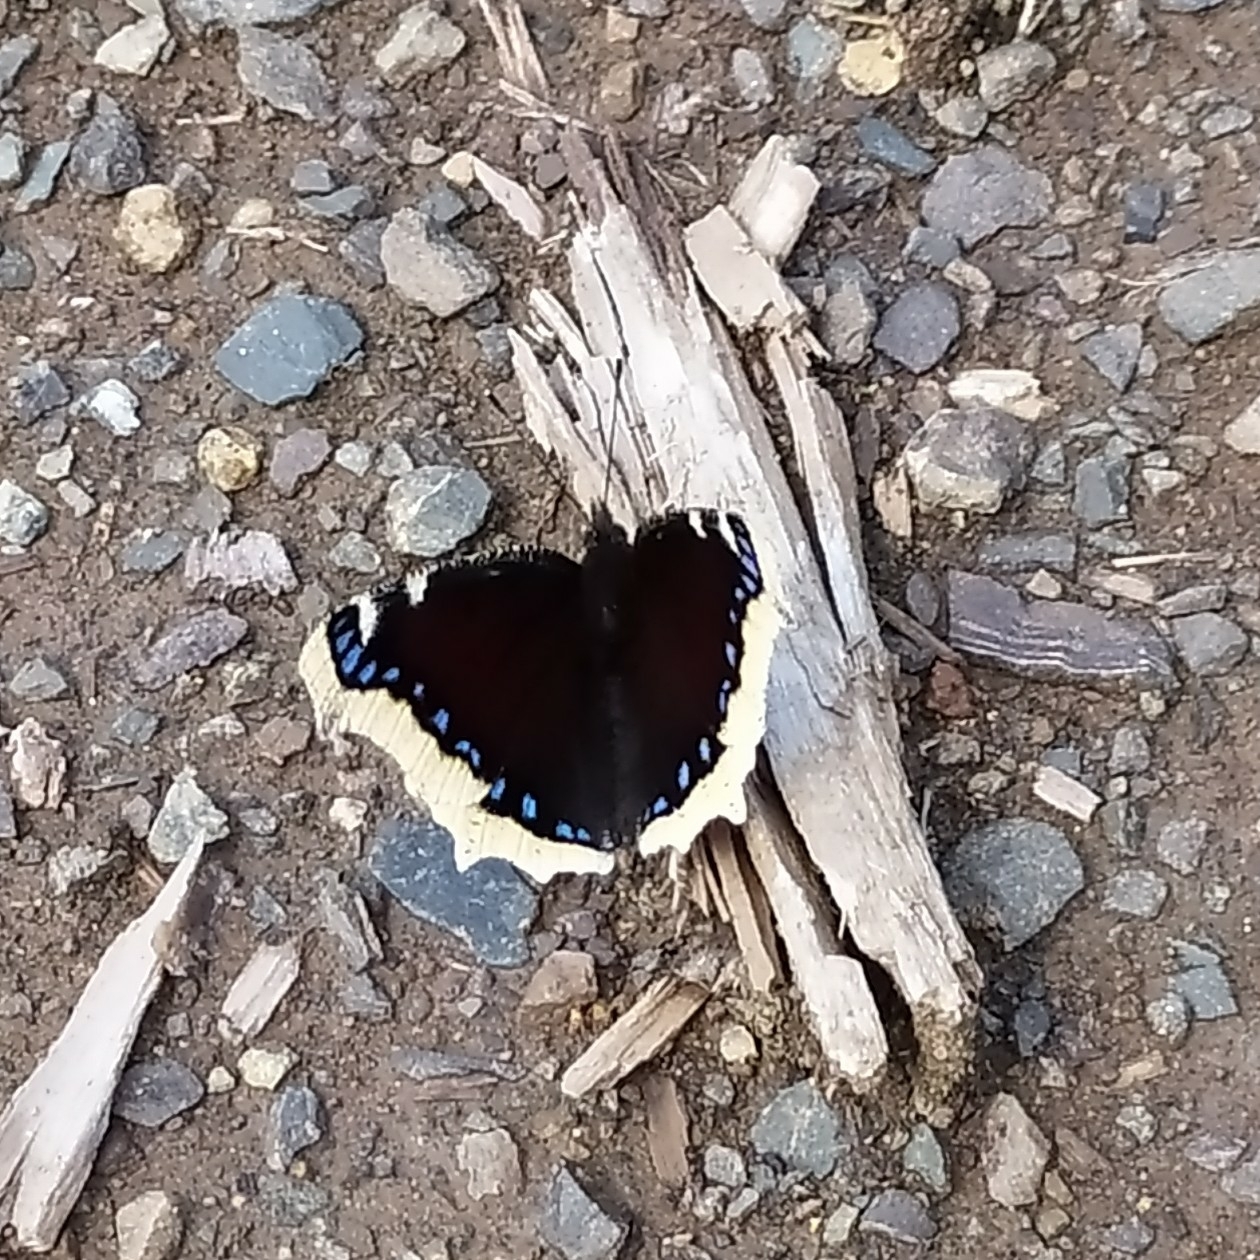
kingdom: Animalia
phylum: Arthropoda
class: Insecta
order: Lepidoptera
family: Nymphalidae
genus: Nymphalis
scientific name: Nymphalis antiopa
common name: Camberwell beauty
